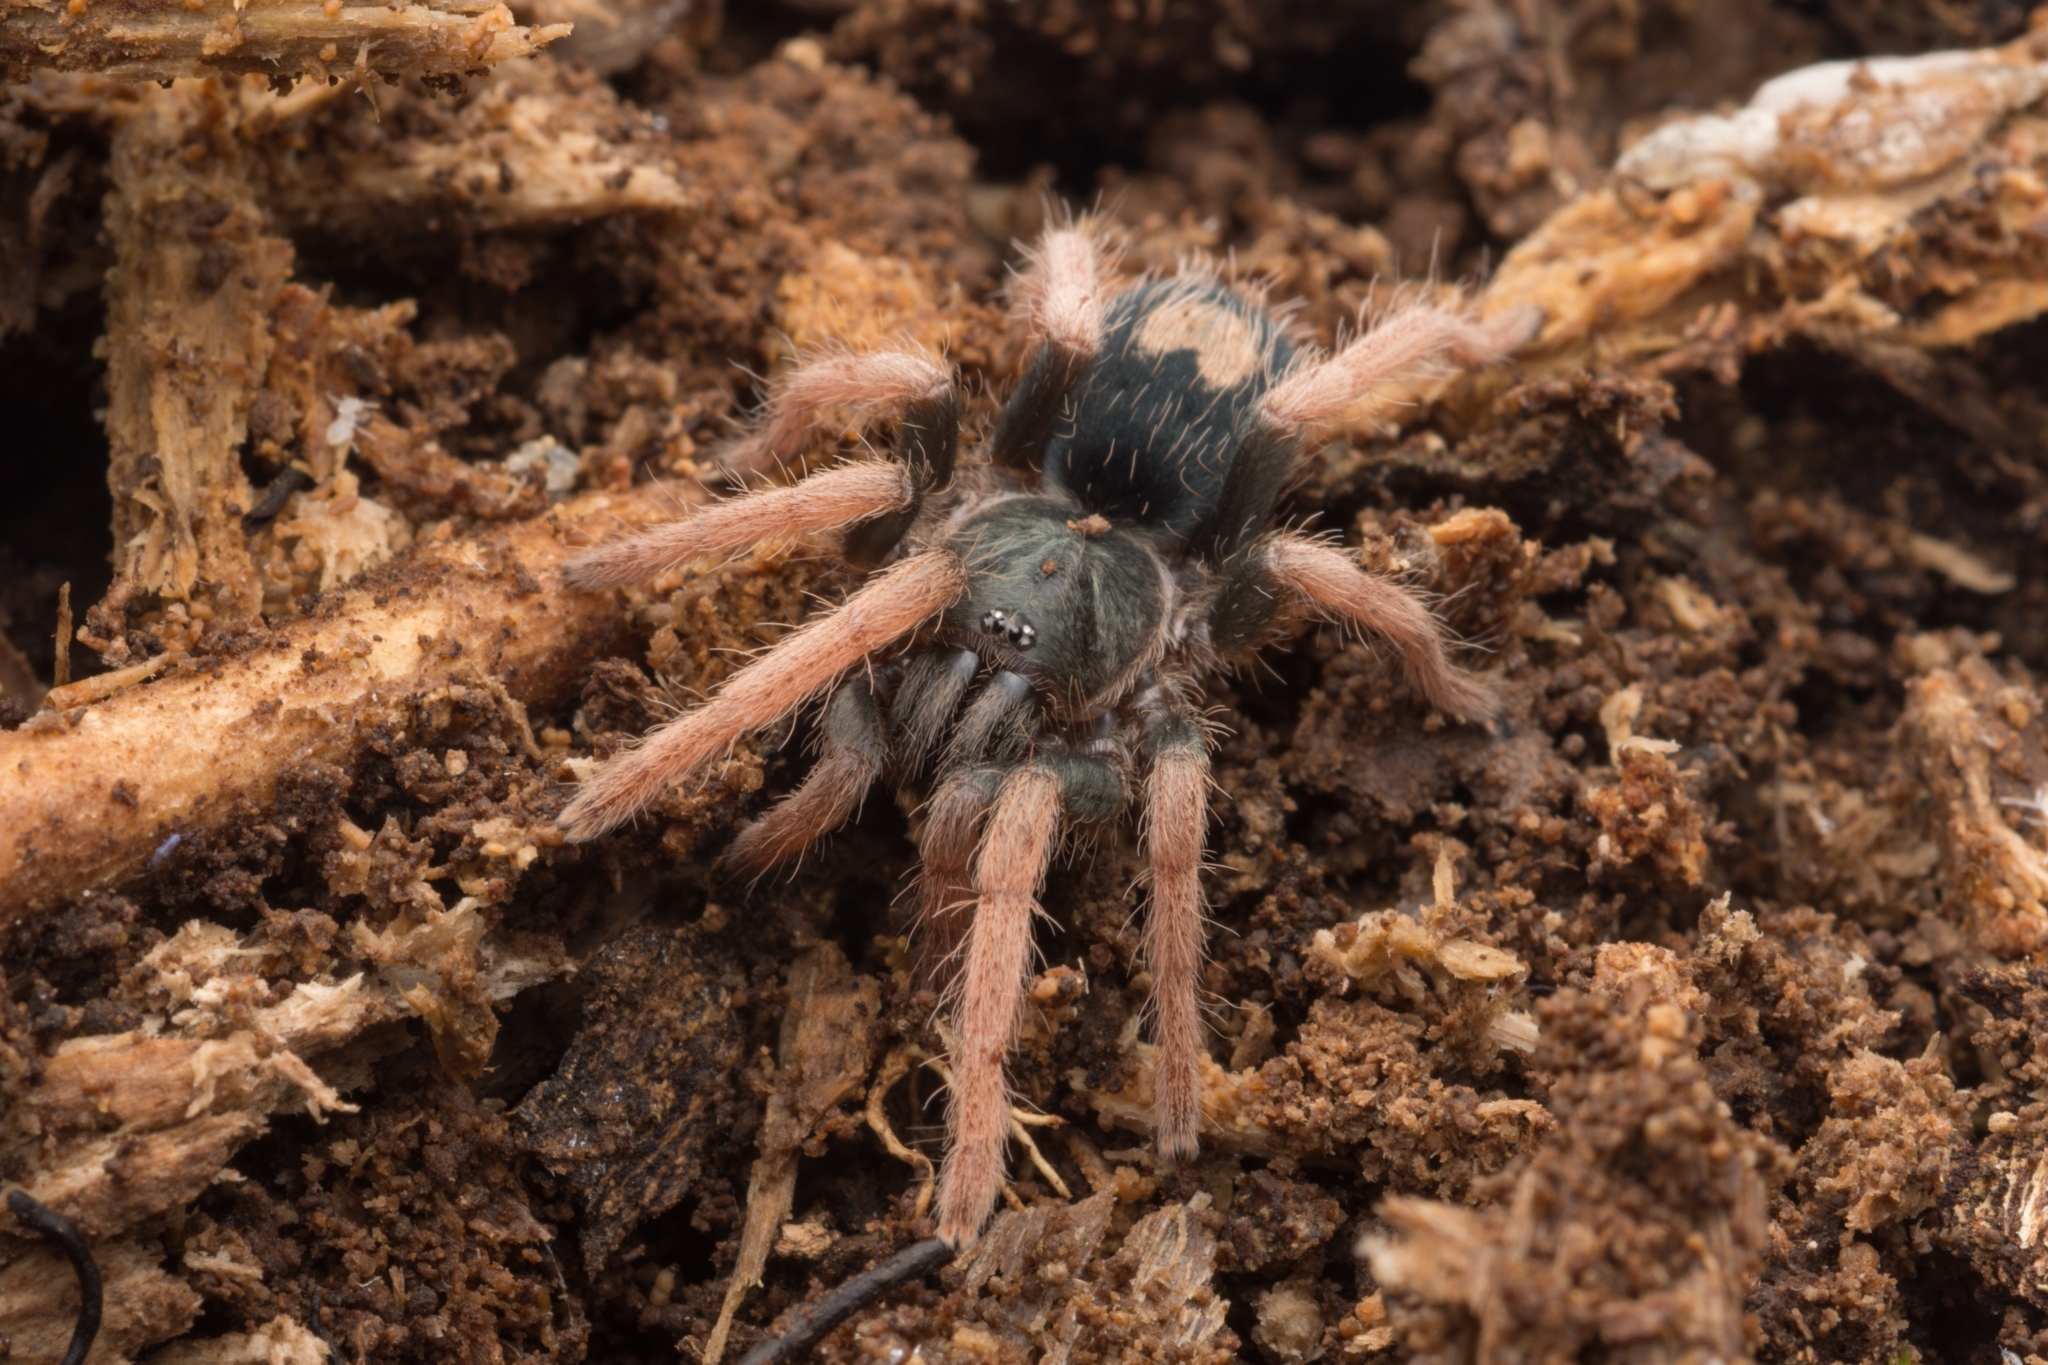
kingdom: Animalia
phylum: Arthropoda
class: Arachnida
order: Araneae
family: Theraphosidae
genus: Cyriocosmus
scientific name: Cyriocosmus aueri
